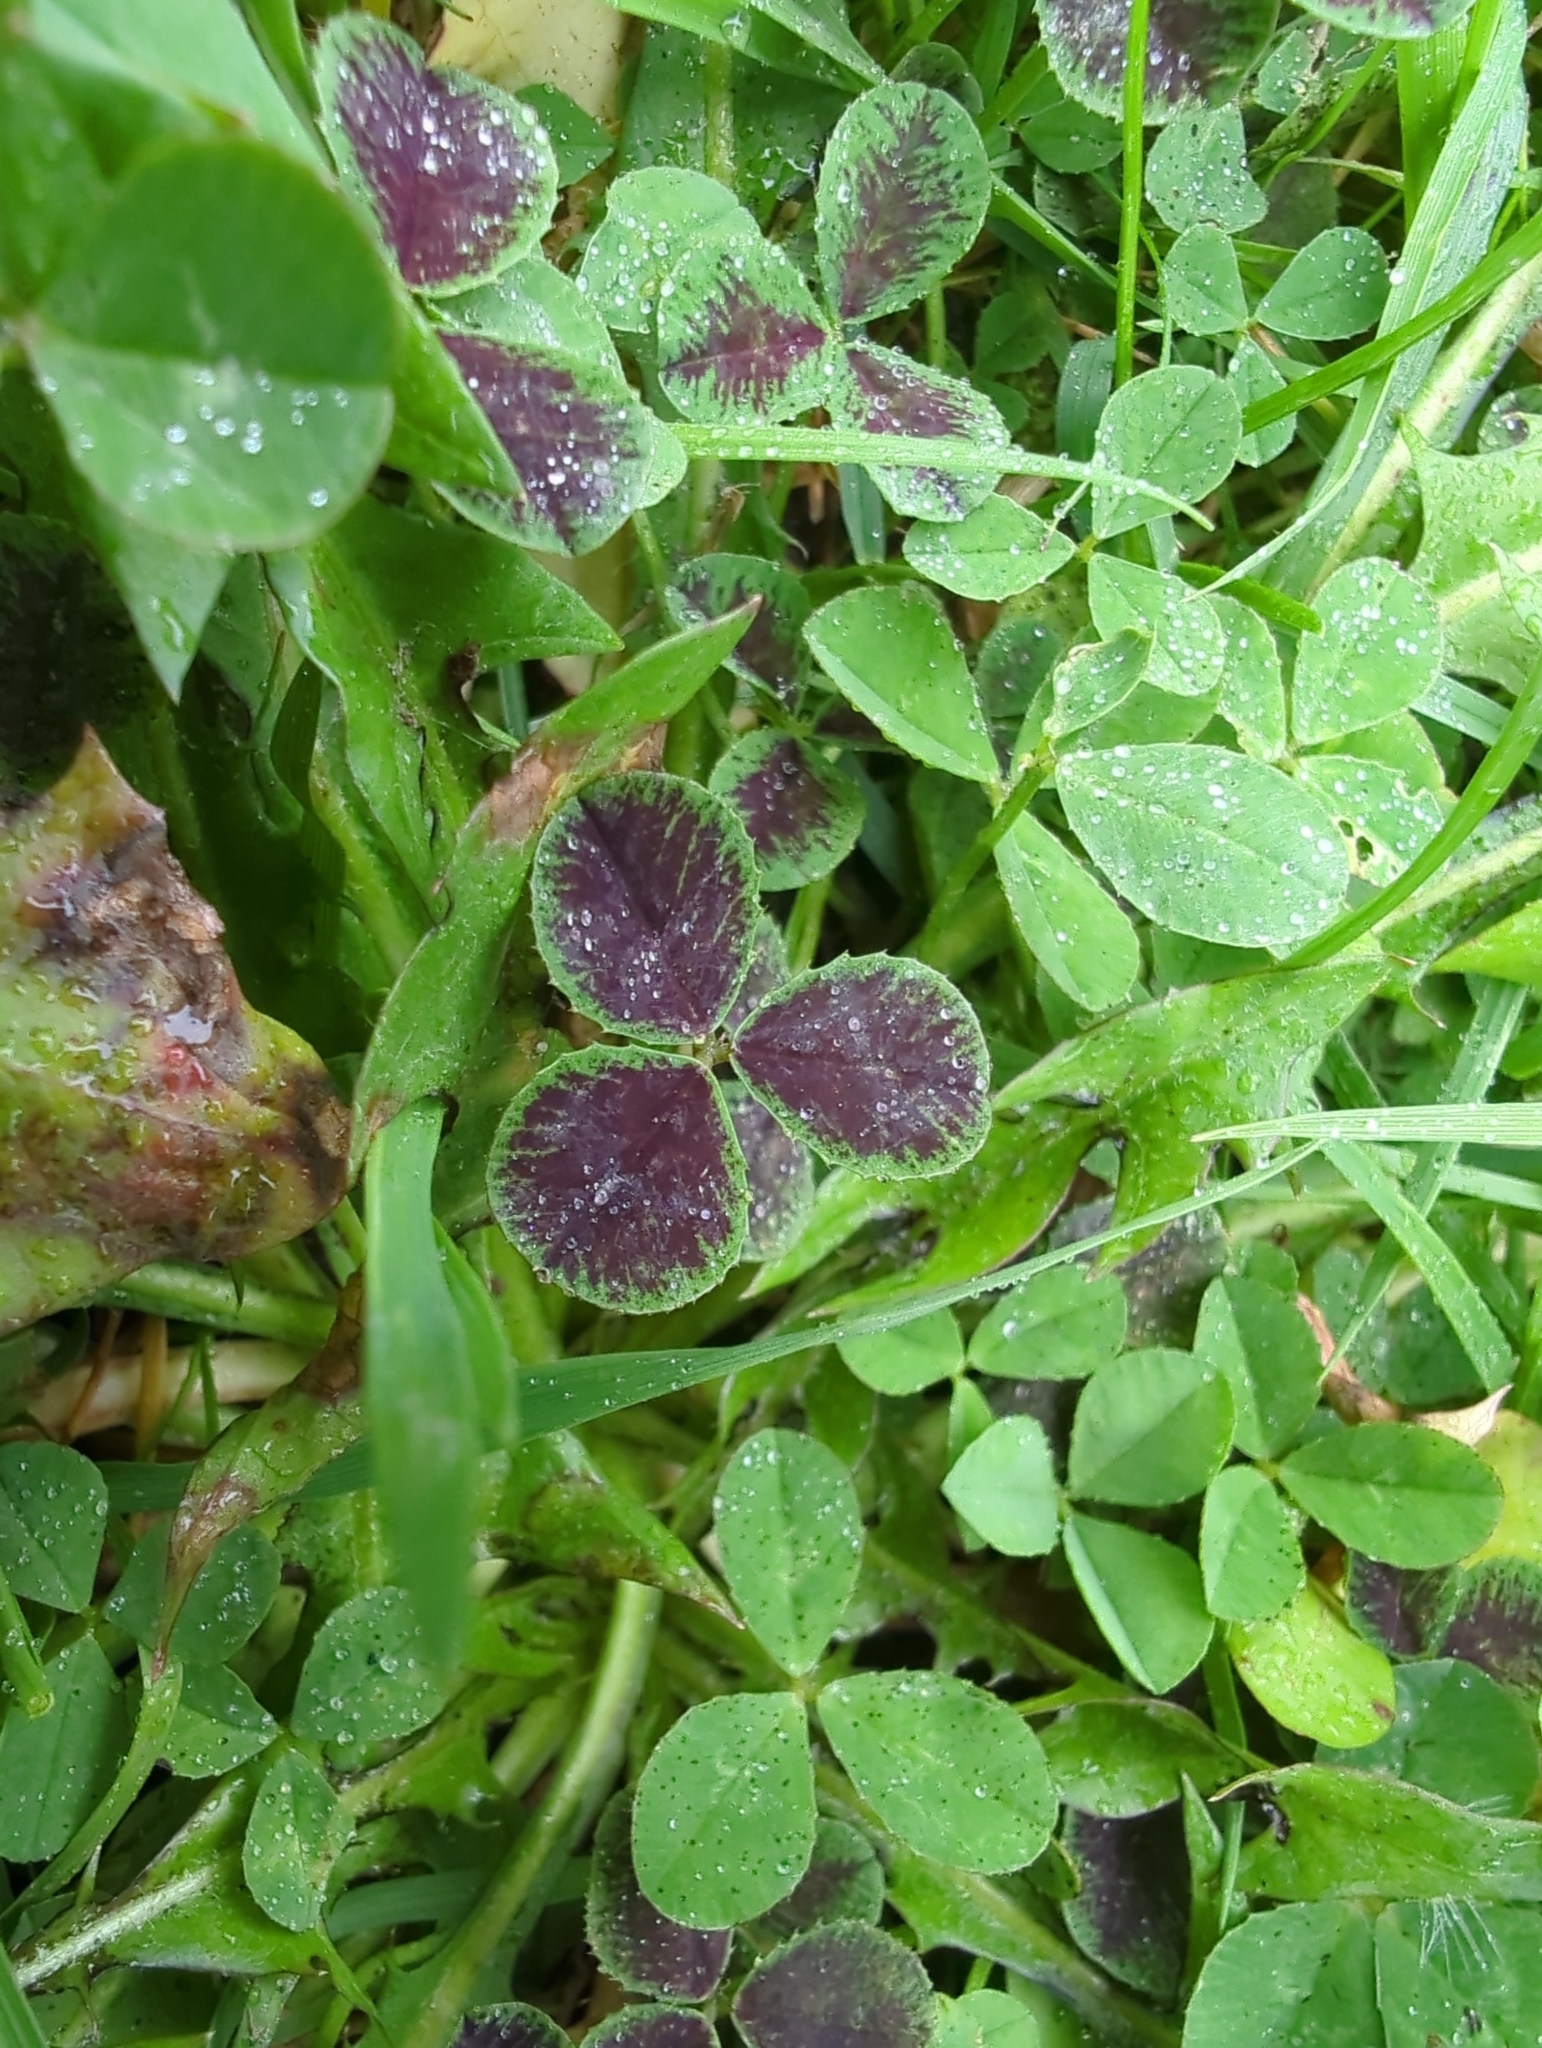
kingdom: Plantae
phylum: Tracheophyta
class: Magnoliopsida
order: Fabales
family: Fabaceae
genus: Trifolium
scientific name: Trifolium repens
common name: White clover
